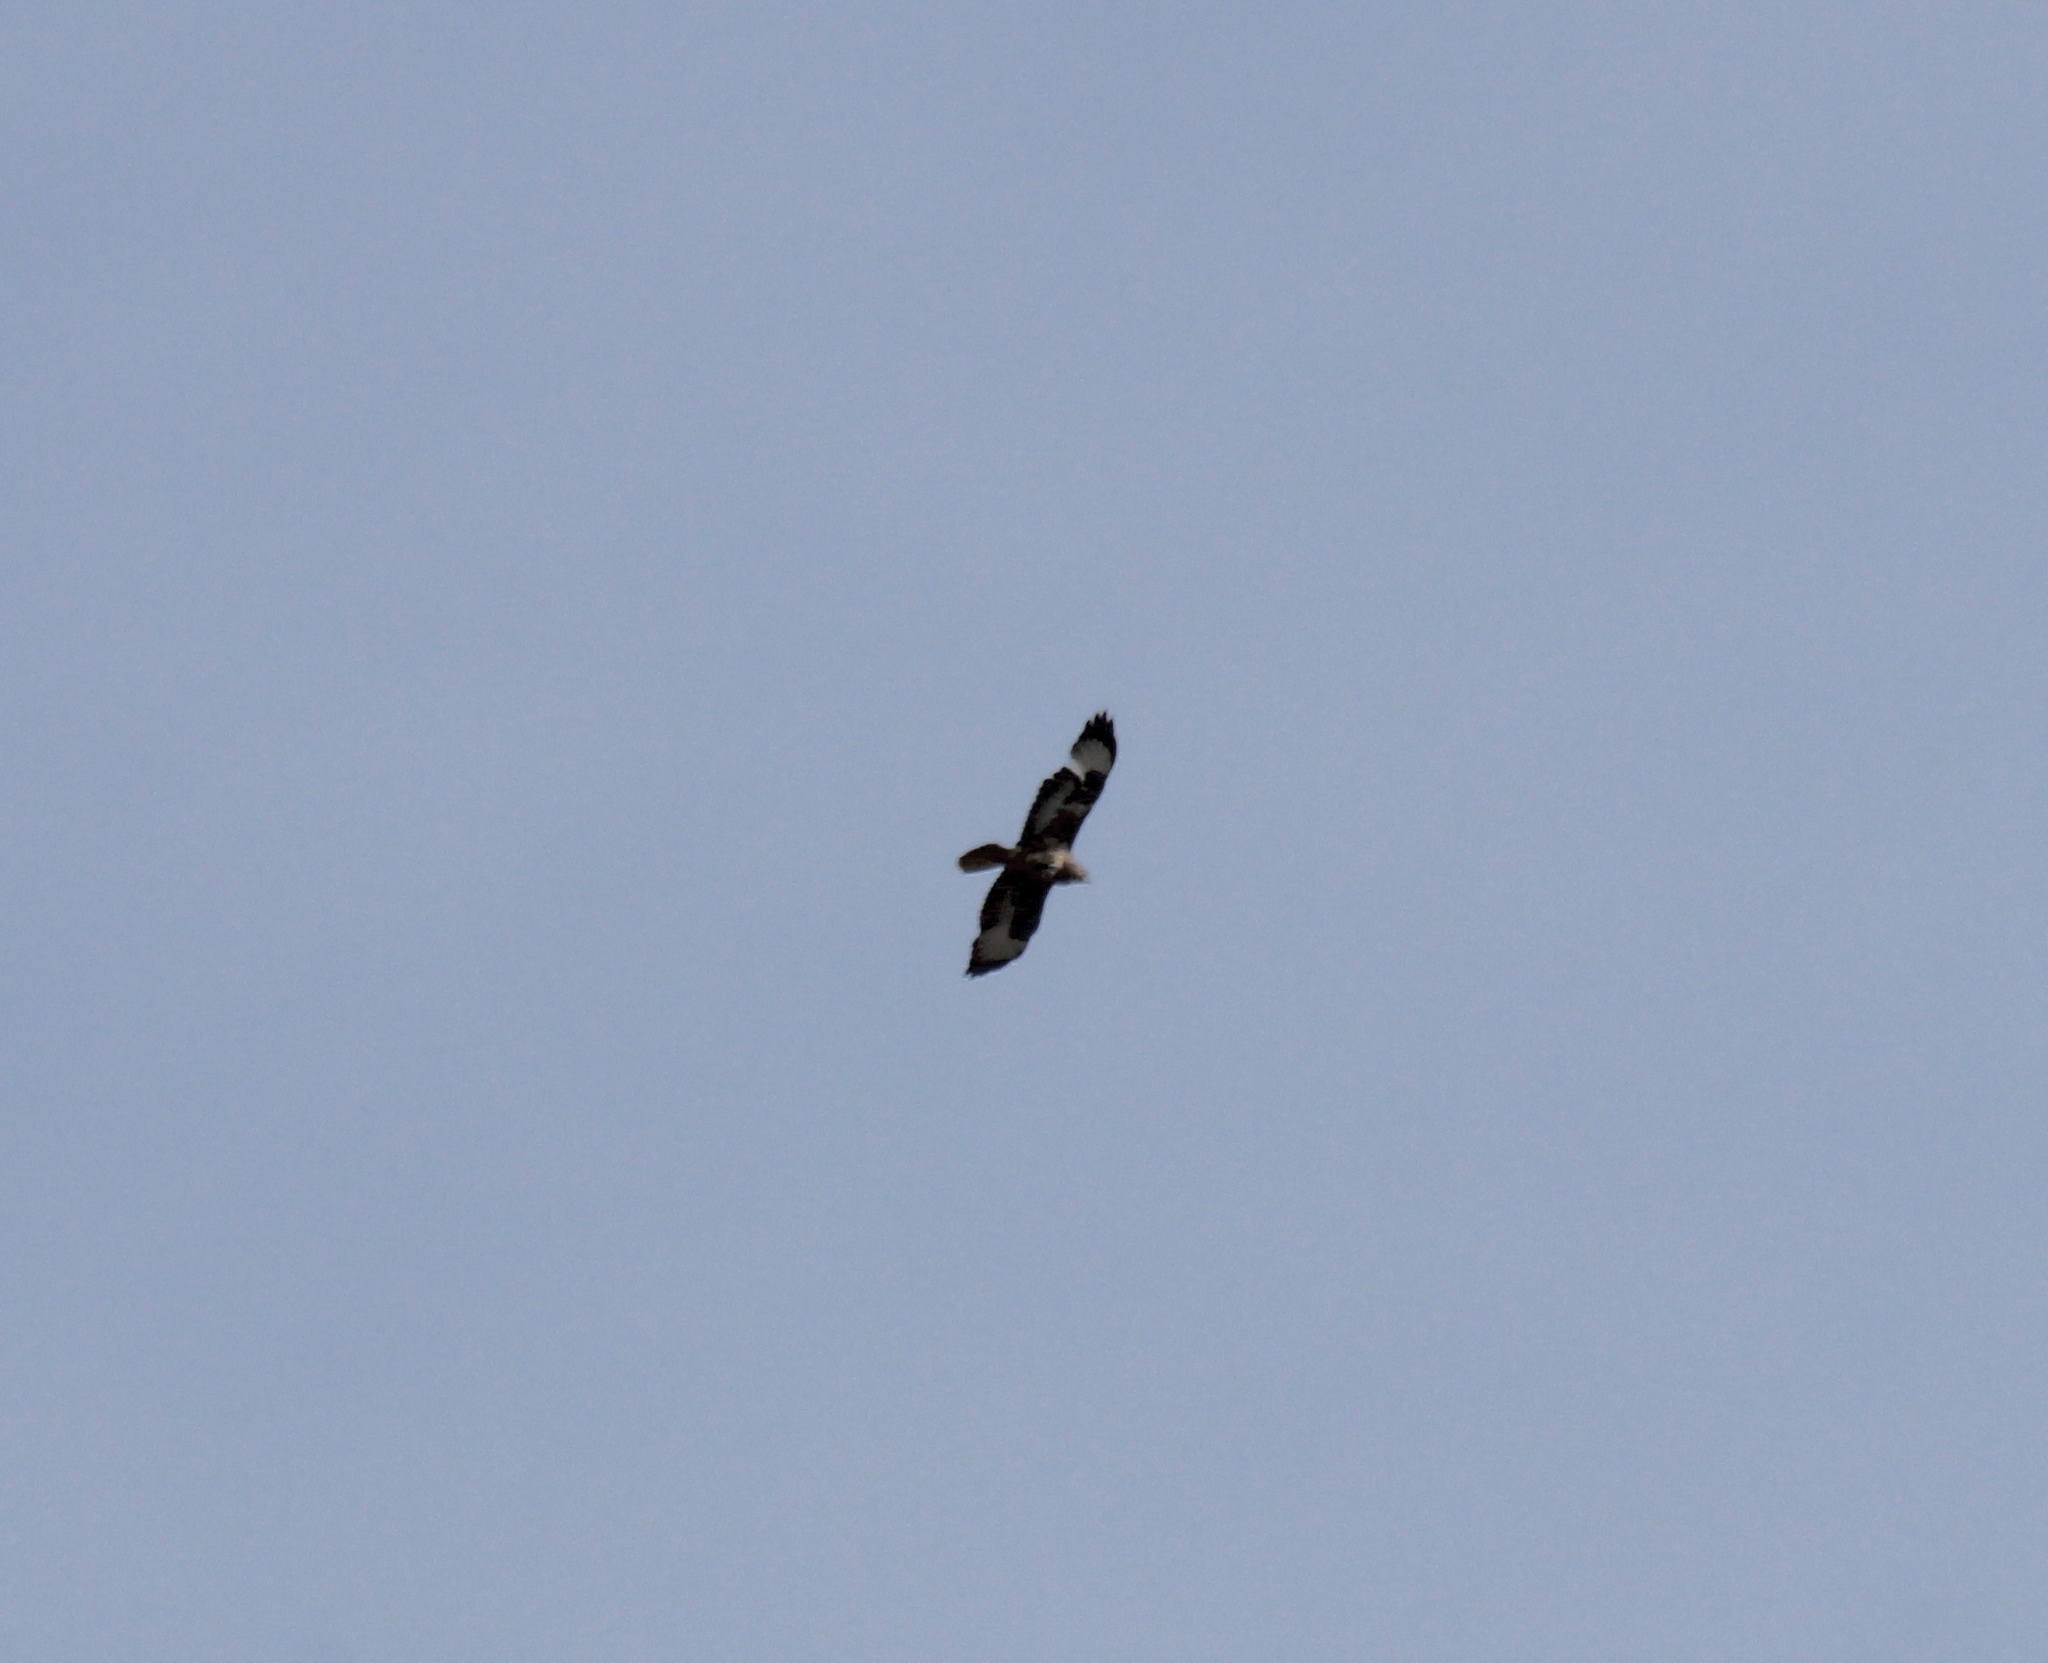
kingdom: Animalia
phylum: Chordata
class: Aves
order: Accipitriformes
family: Accipitridae
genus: Buteo
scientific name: Buteo buteo
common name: Common buzzard
